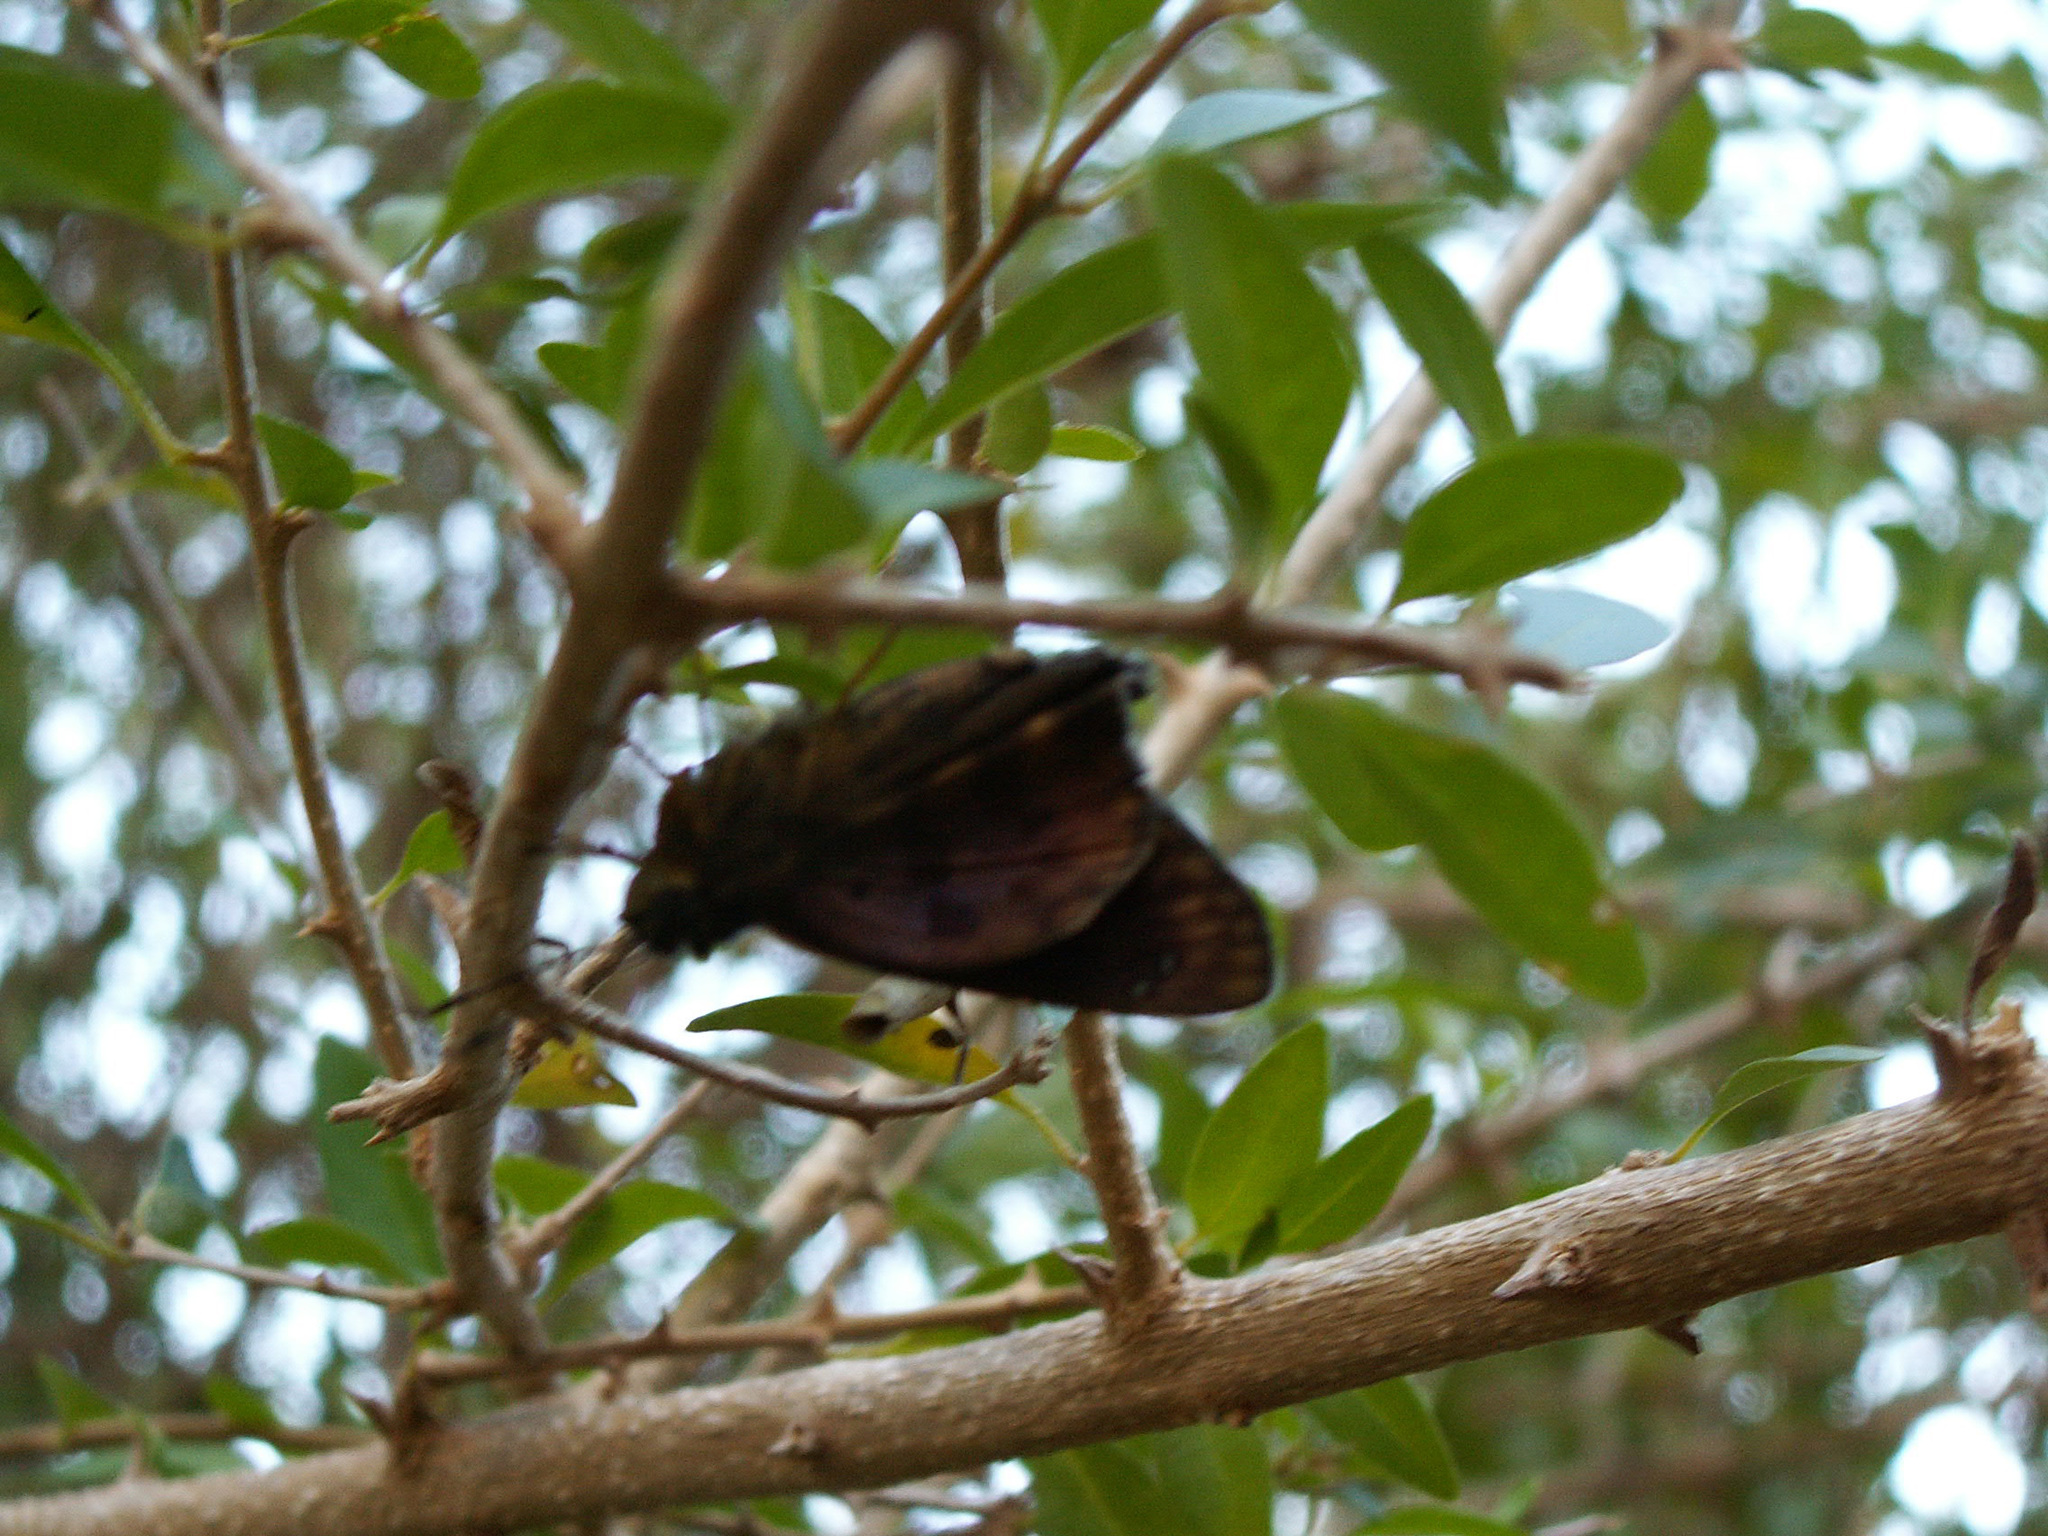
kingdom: Animalia
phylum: Arthropoda
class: Insecta
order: Lepidoptera
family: Hesperiidae
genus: Polygonus
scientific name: Polygonus leo
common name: Hammoch skipper
